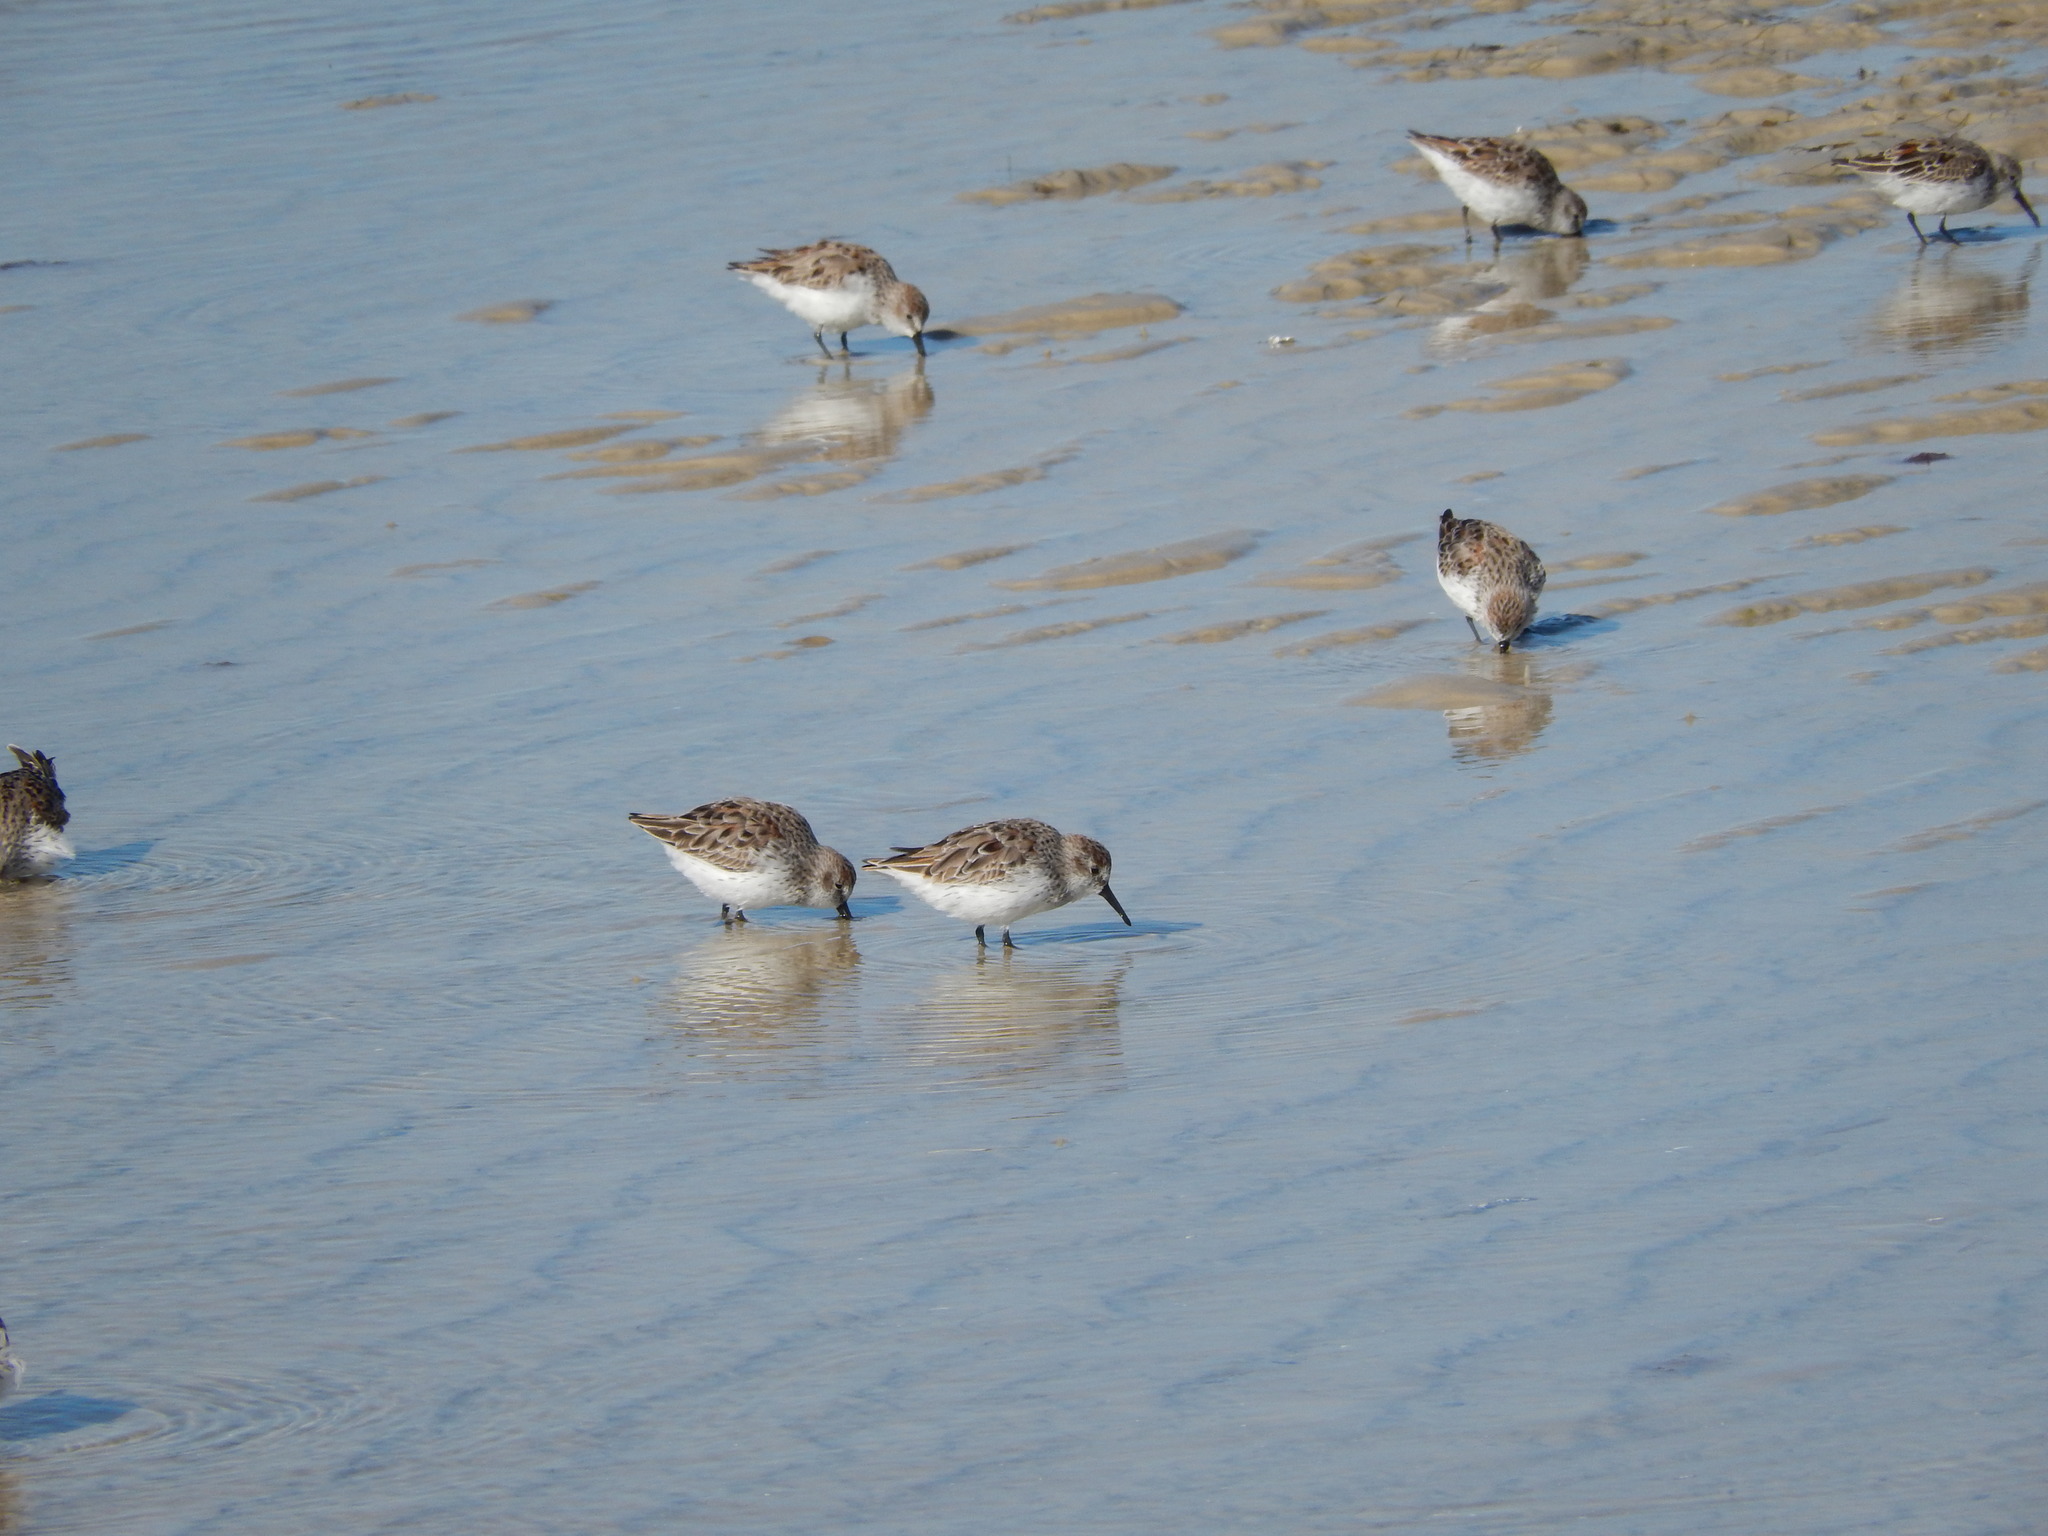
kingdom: Animalia
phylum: Chordata
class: Aves
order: Charadriiformes
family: Scolopacidae
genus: Calidris
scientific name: Calidris mauri
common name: Western sandpiper
